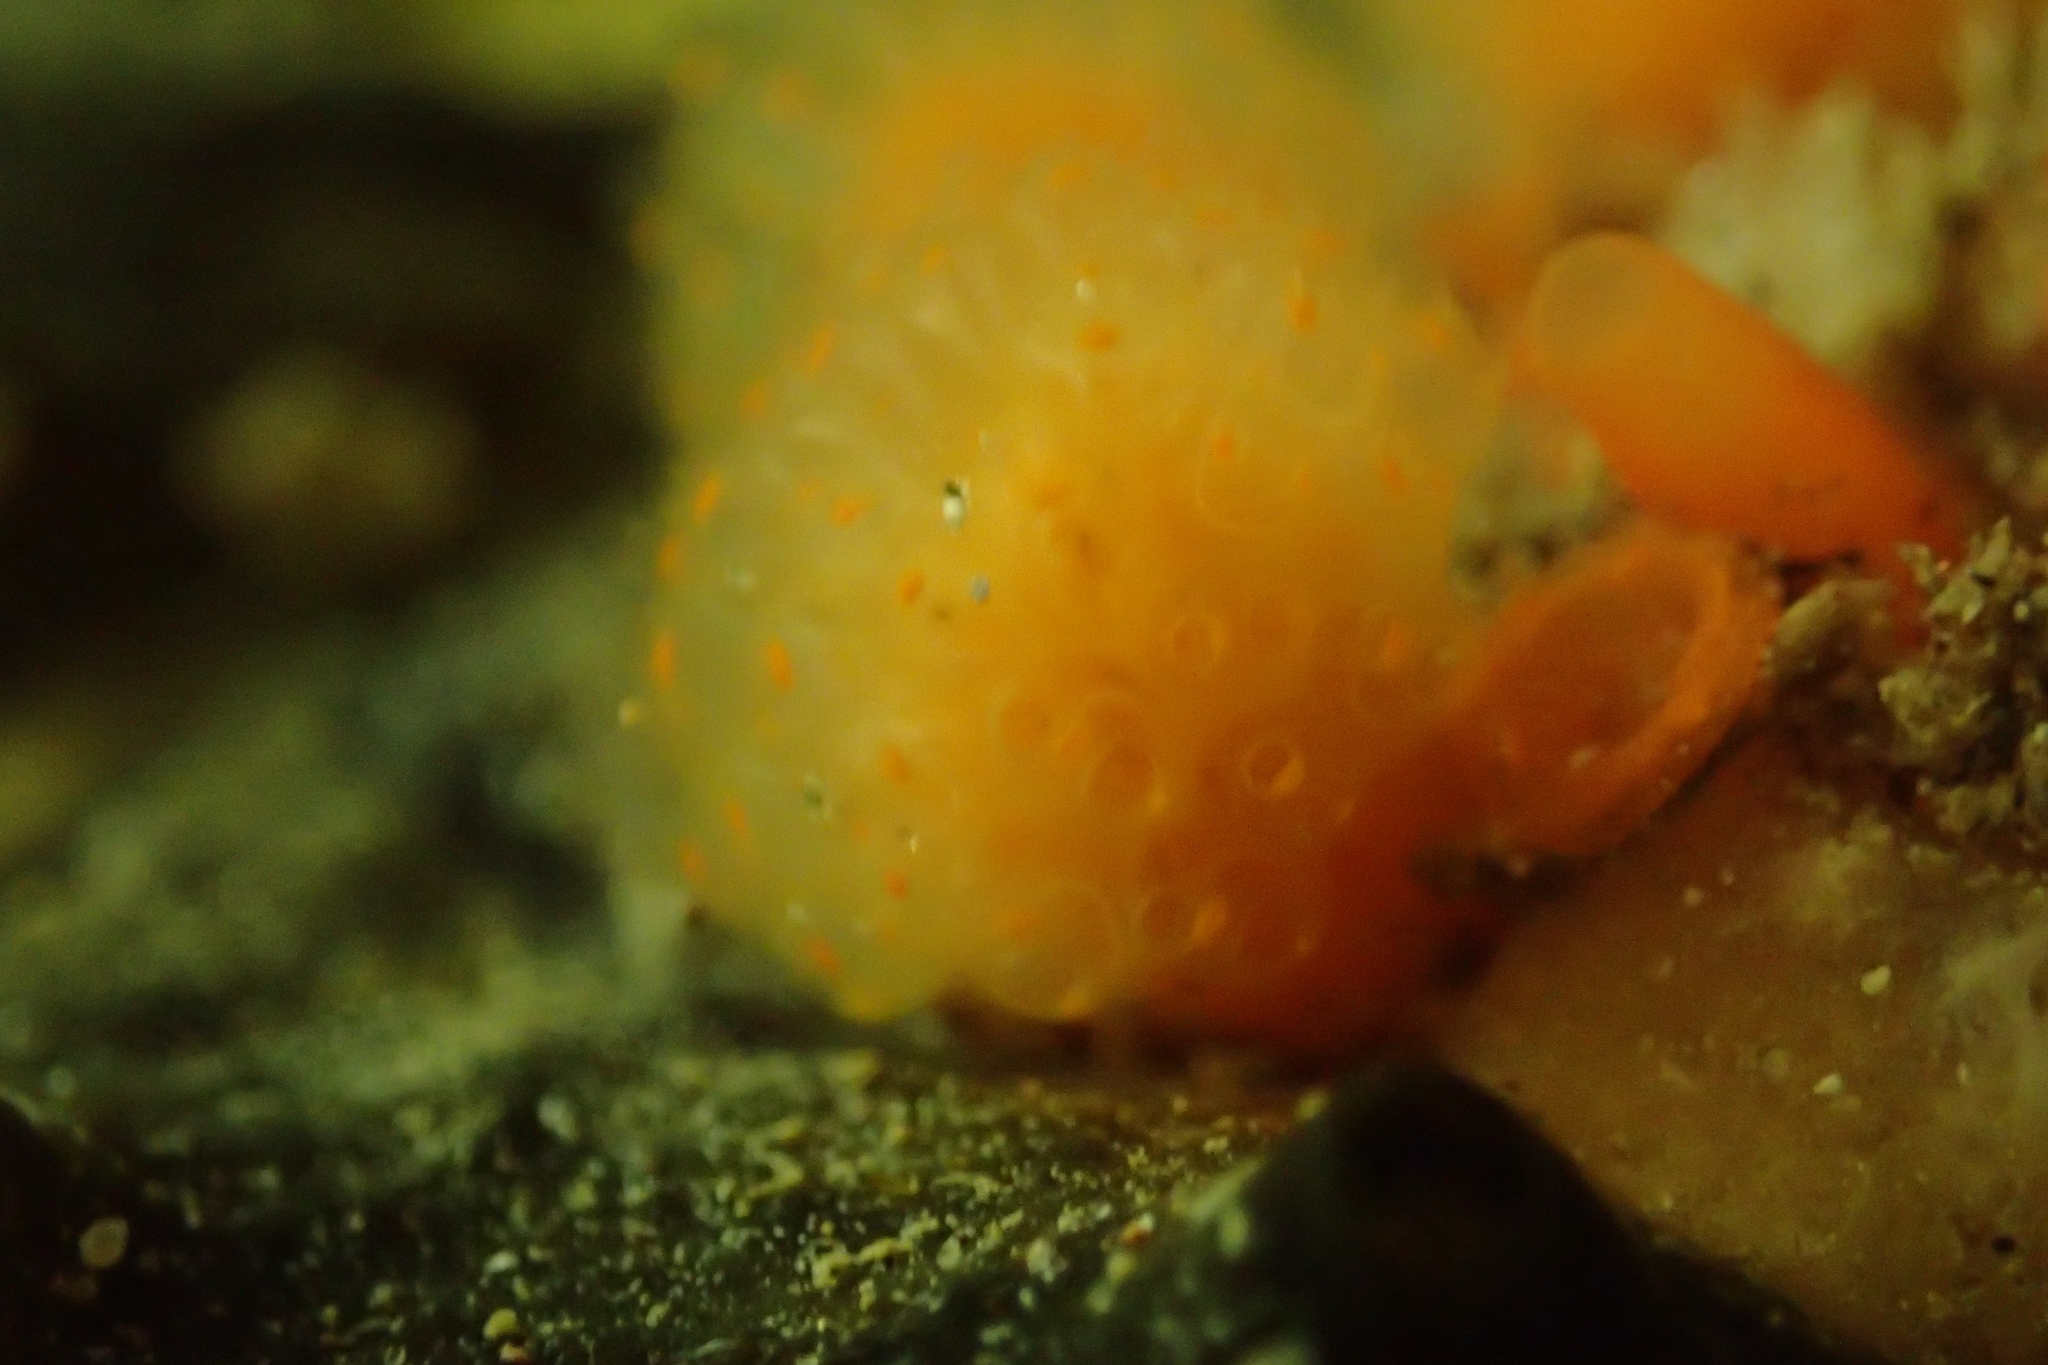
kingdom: Animalia
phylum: Chordata
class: Ascidiacea
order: Aplousobranchia
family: Pseudodistomidae
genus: Pseudodistoma
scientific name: Pseudodistoma novaezelandiae
